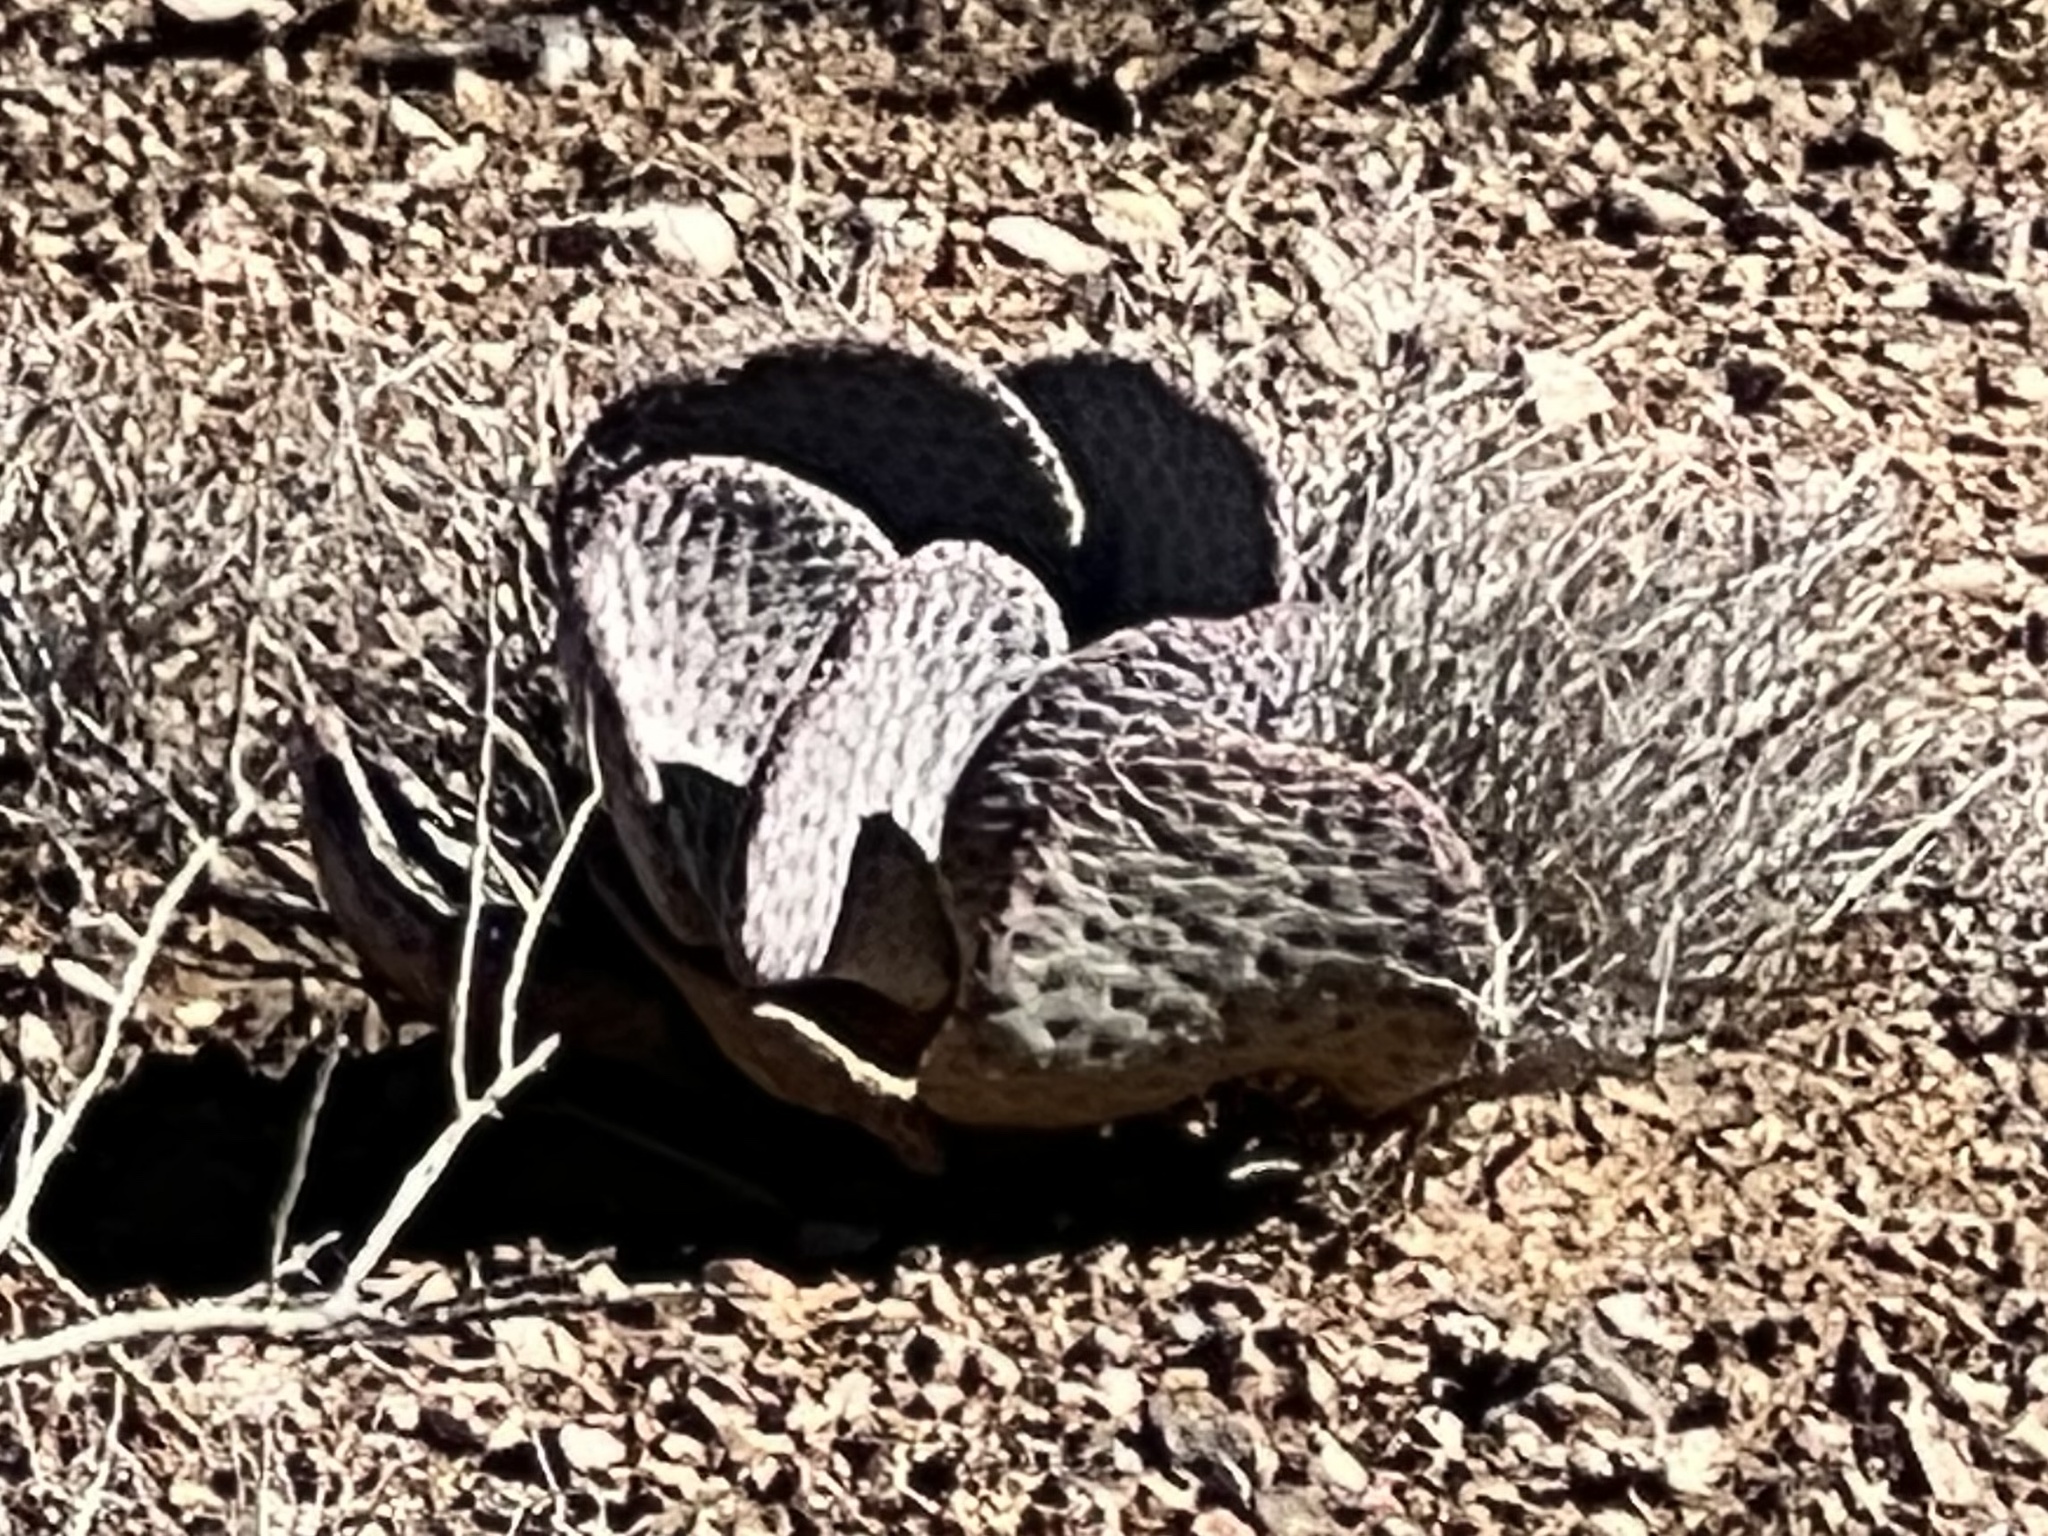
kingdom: Plantae
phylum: Tracheophyta
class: Magnoliopsida
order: Caryophyllales
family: Cactaceae
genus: Opuntia
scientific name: Opuntia basilaris
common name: Beavertail prickly-pear
